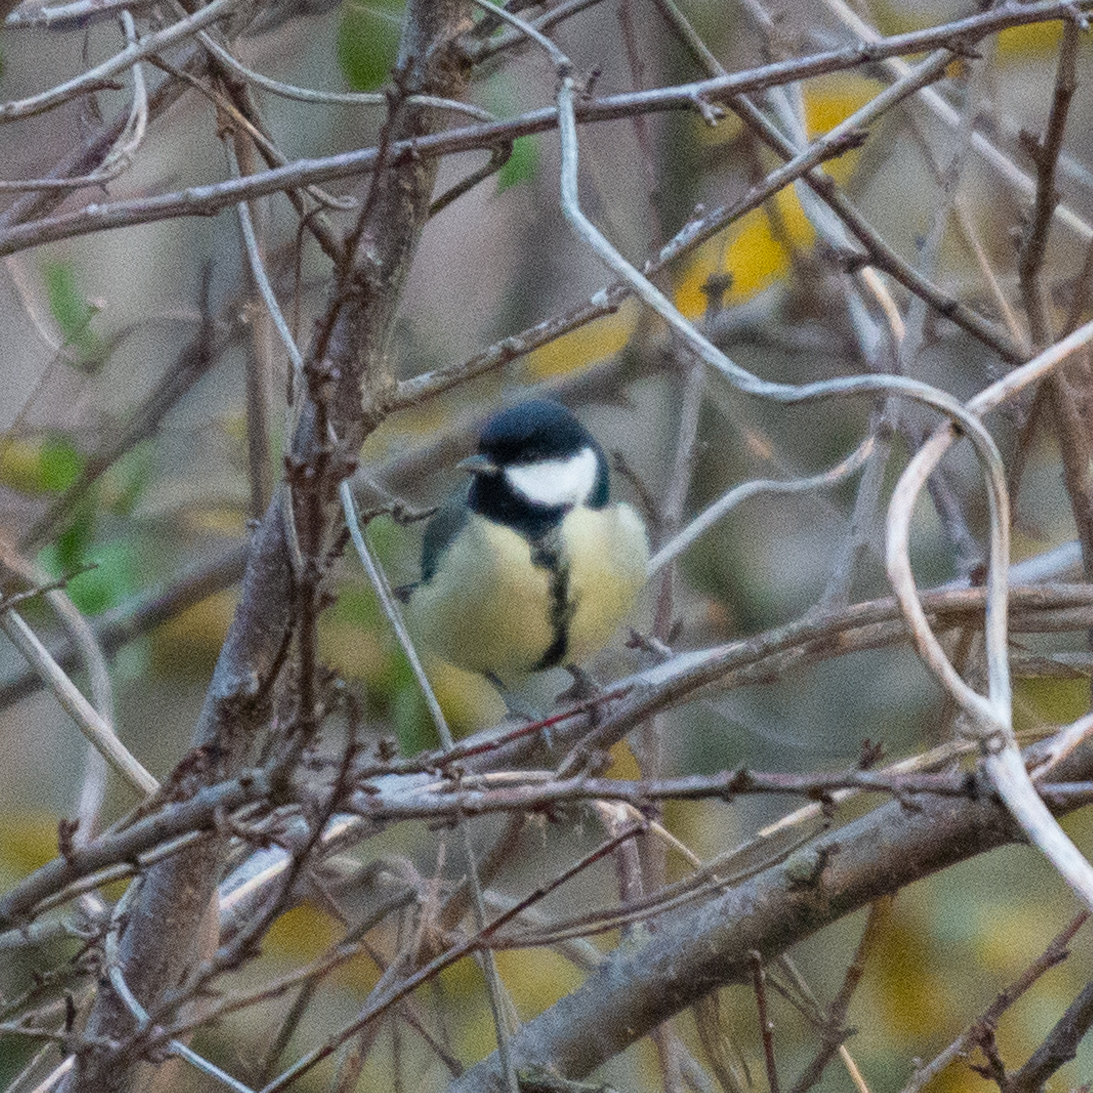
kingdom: Animalia
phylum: Chordata
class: Aves
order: Passeriformes
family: Paridae
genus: Parus
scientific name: Parus major
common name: Great tit
